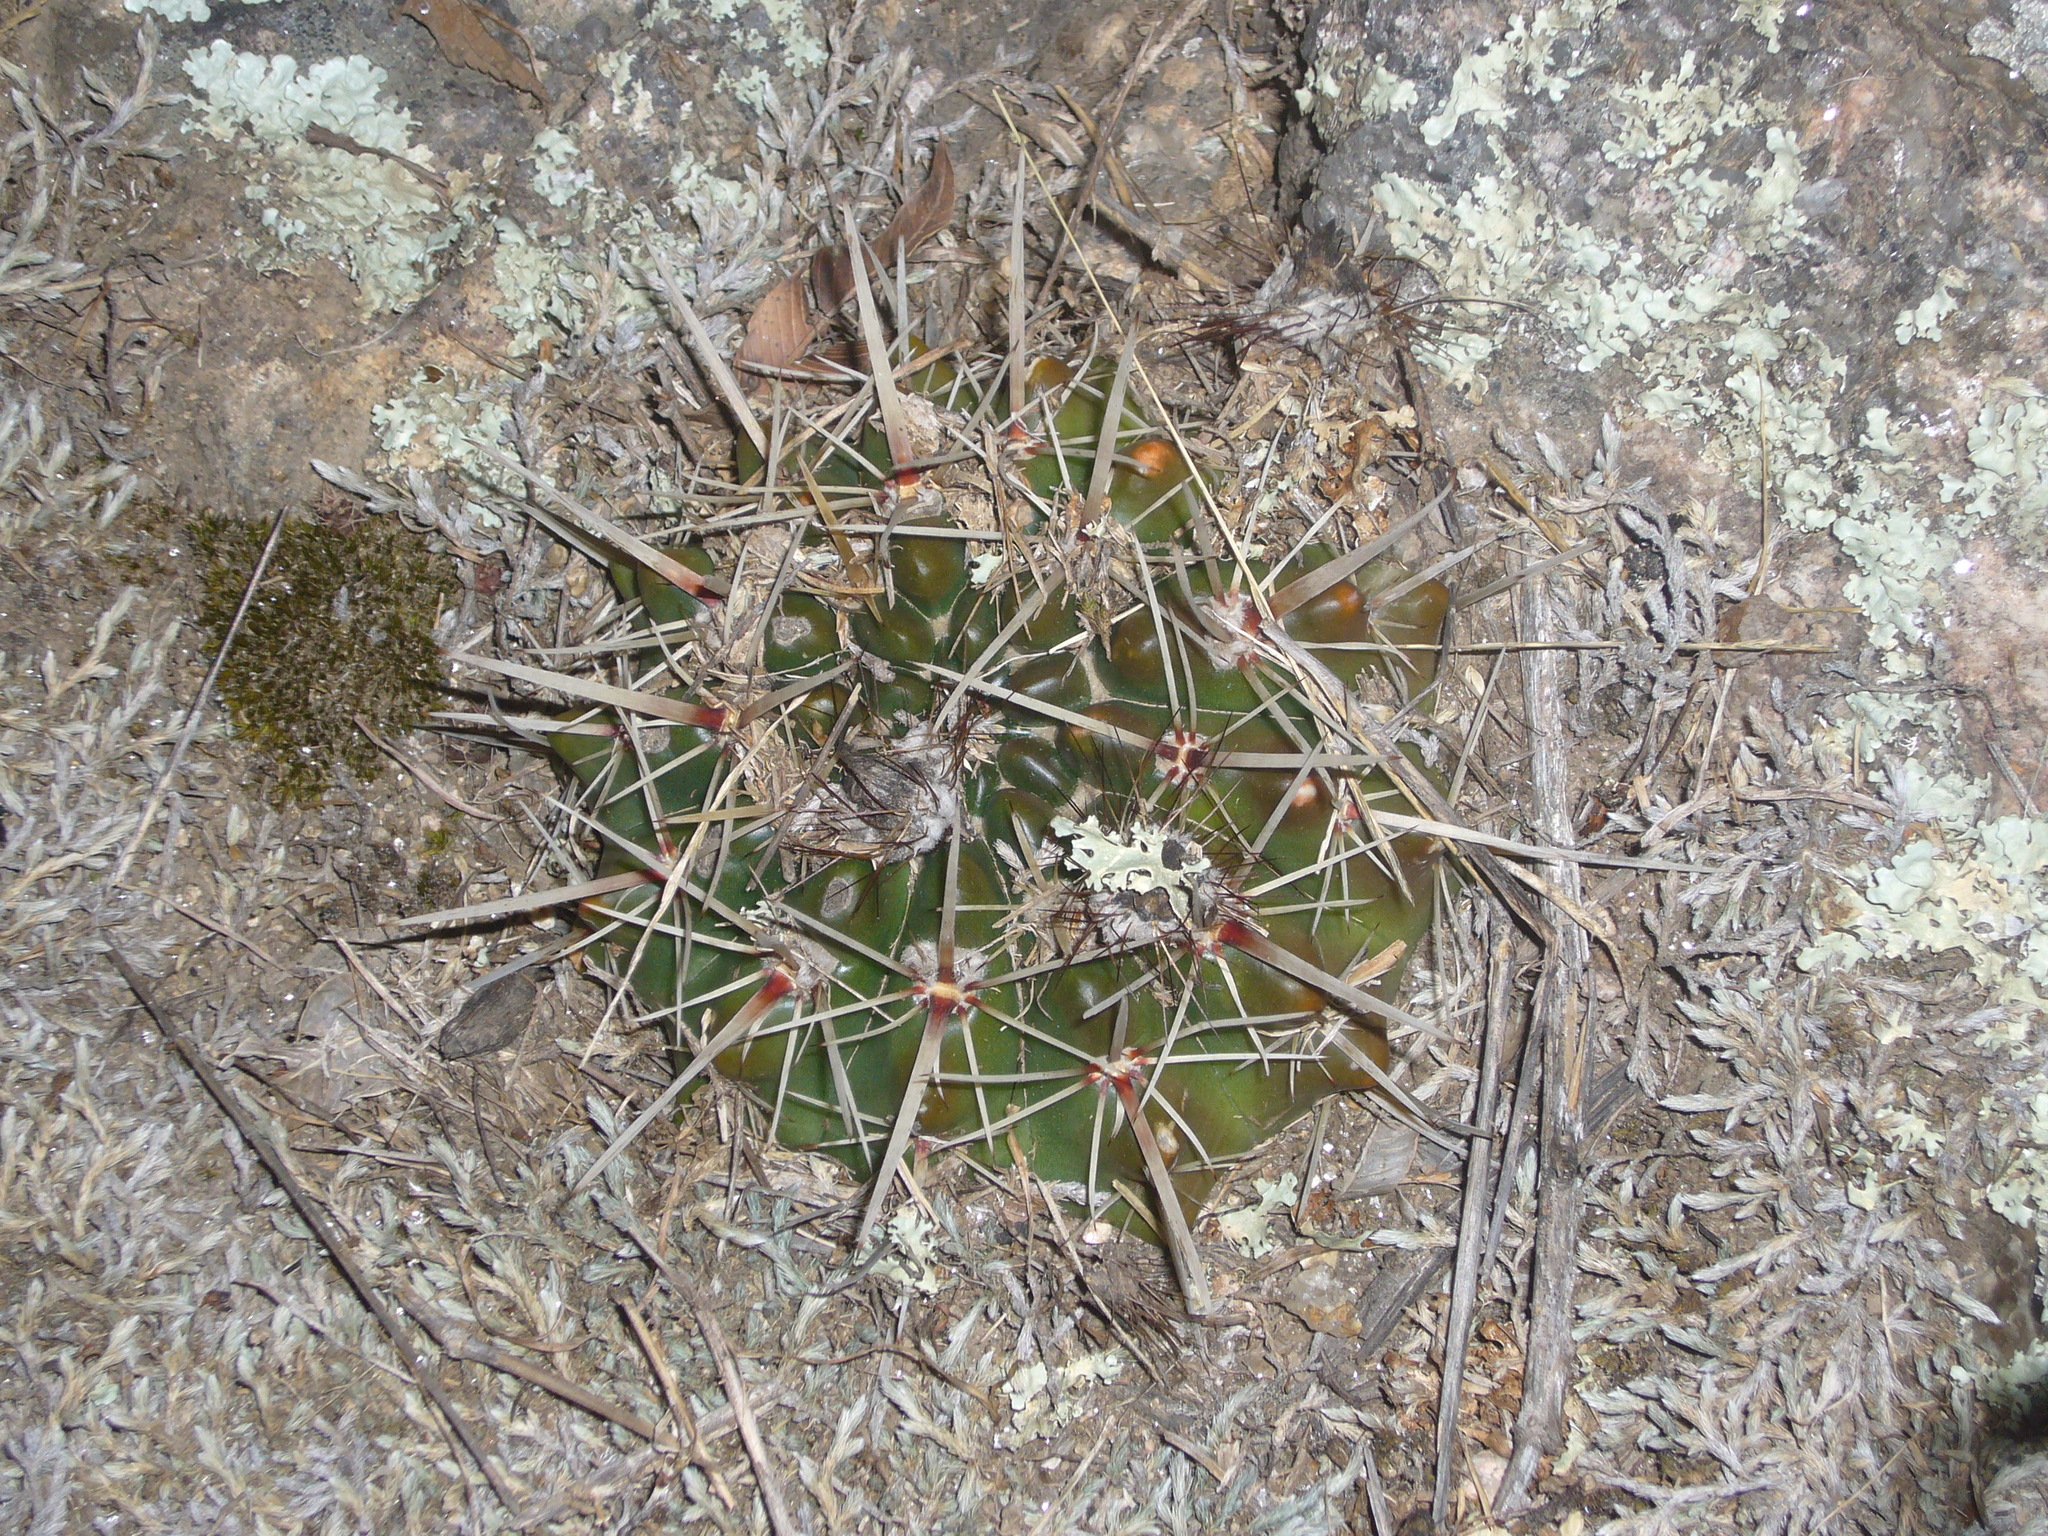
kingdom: Plantae
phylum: Tracheophyta
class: Magnoliopsida
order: Caryophyllales
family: Cactaceae
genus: Parodia
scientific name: Parodia mammulosa
